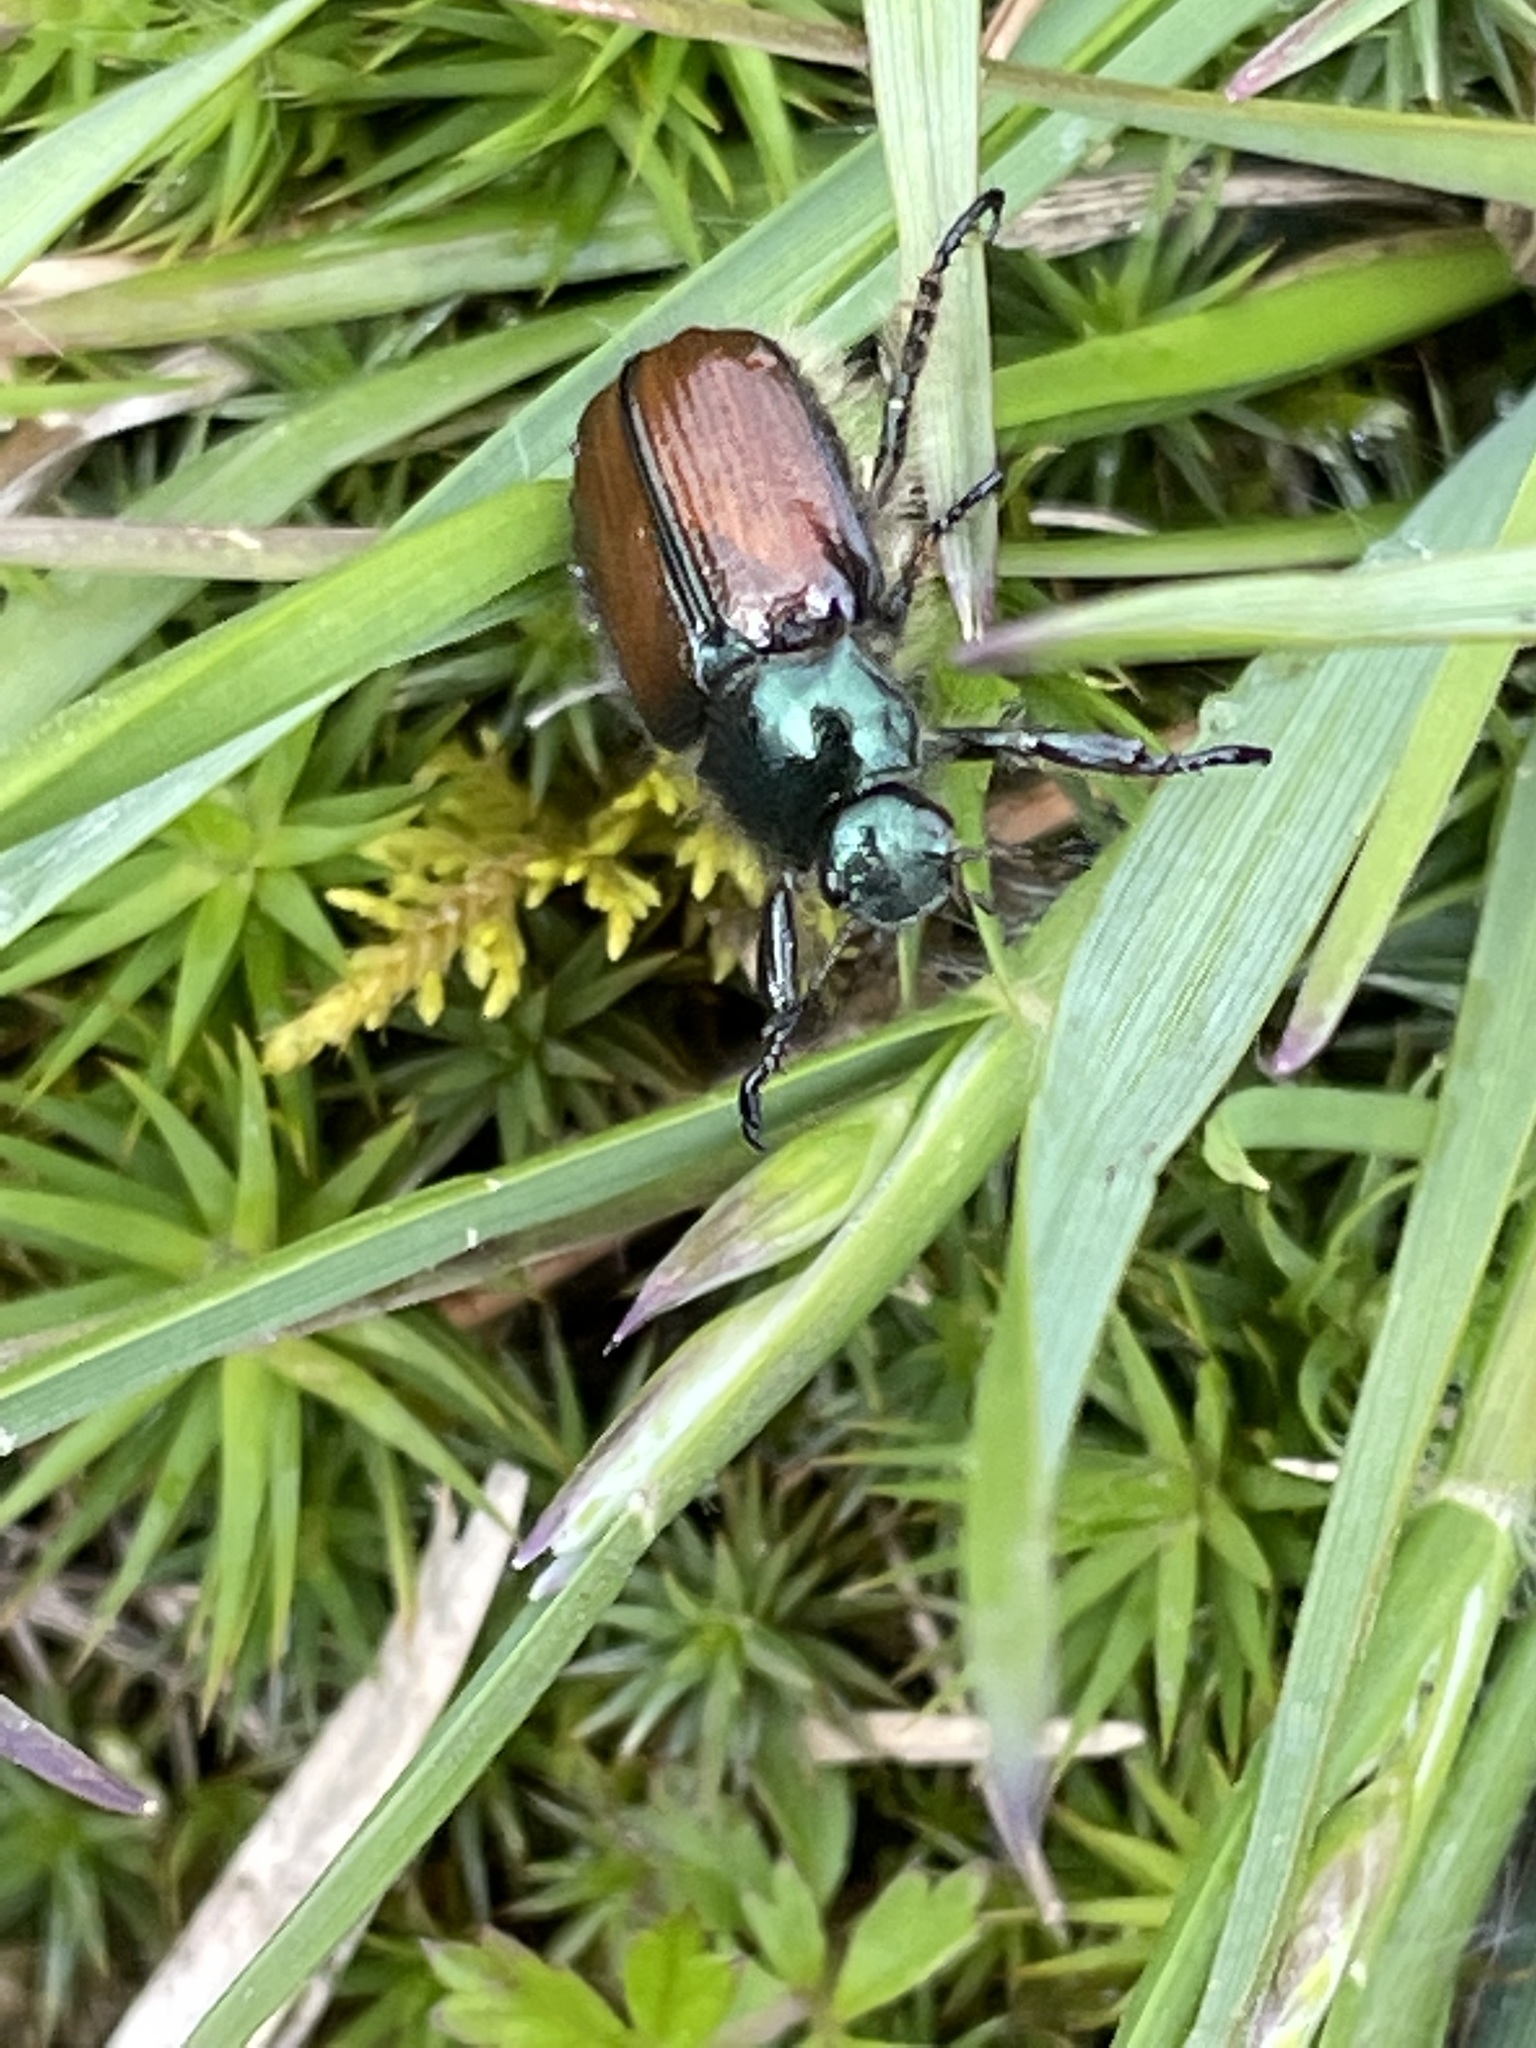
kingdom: Animalia
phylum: Arthropoda
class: Insecta
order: Coleoptera
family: Scarabaeidae
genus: Phyllopertha
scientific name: Phyllopertha horticola
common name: Garden chafer
